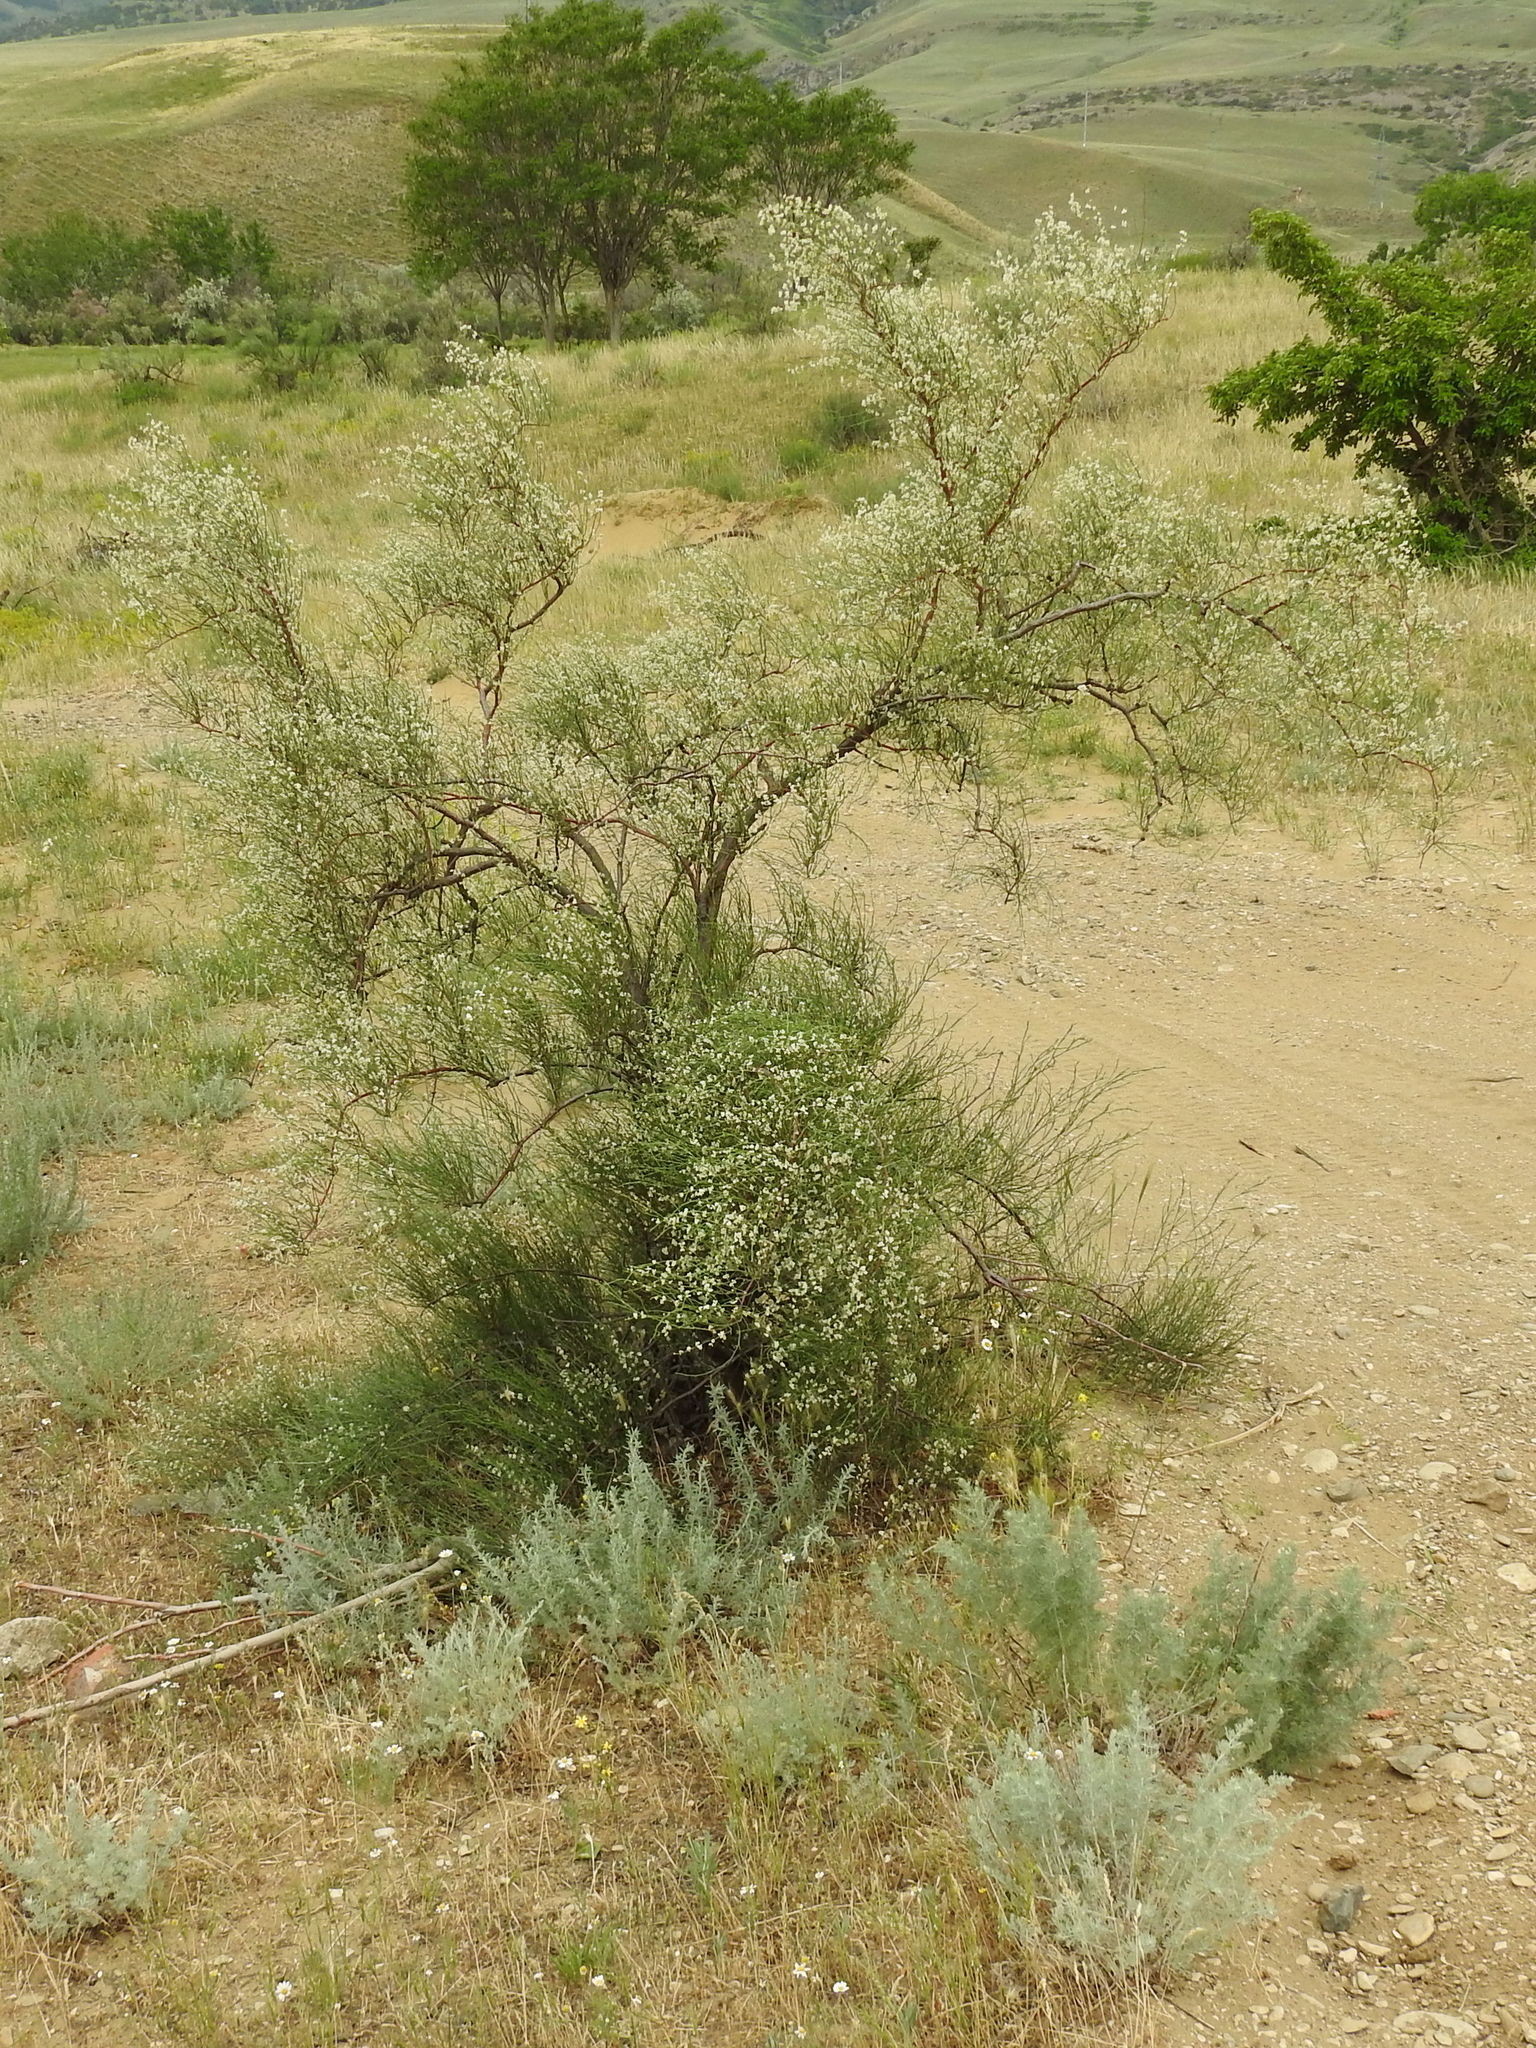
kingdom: Plantae
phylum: Tracheophyta
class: Magnoliopsida
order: Caryophyllales
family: Polygonaceae
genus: Calligonum
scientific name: Calligonum aphyllum
